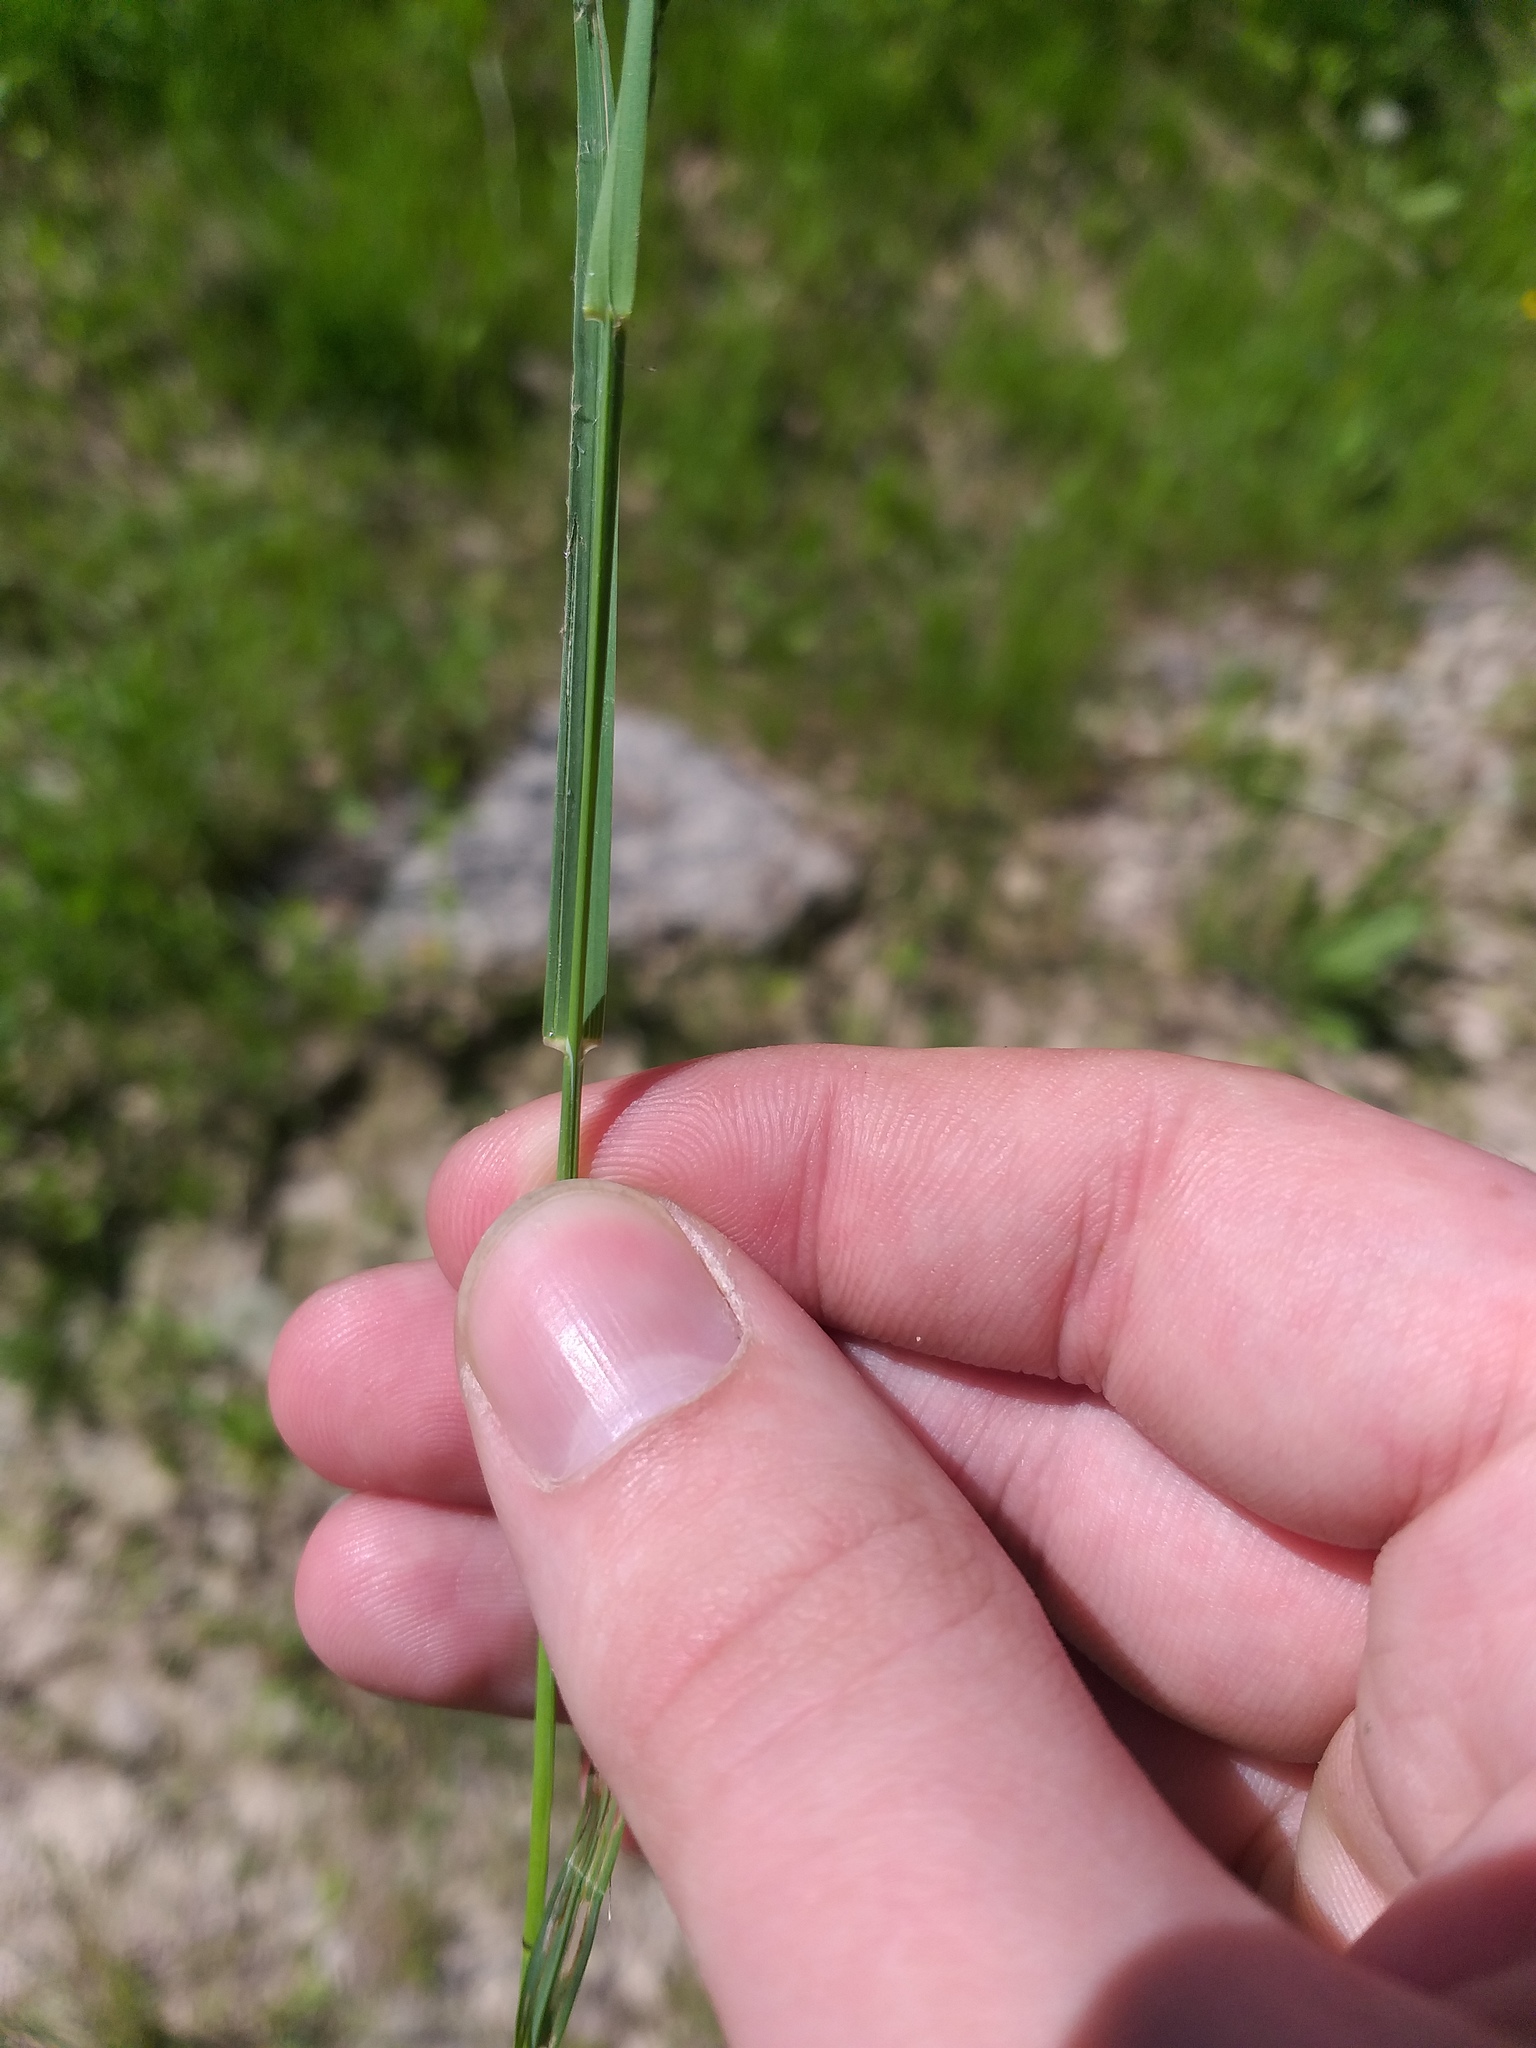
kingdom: Plantae
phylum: Tracheophyta
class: Liliopsida
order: Poales
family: Poaceae
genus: Poa
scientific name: Poa palustris
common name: Swamp meadow-grass
